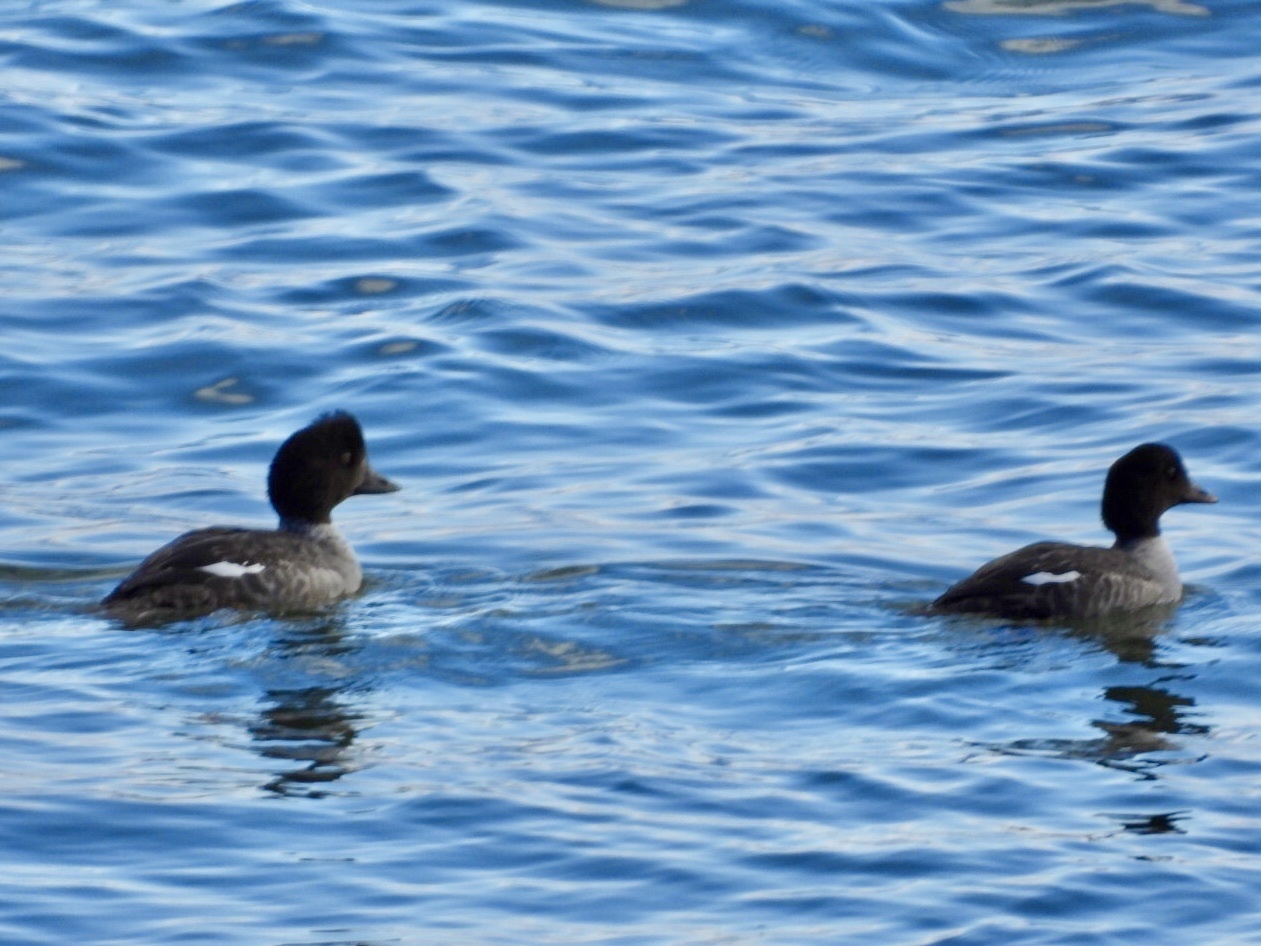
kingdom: Animalia
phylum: Chordata
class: Aves
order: Anseriformes
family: Anatidae
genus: Bucephala
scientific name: Bucephala clangula
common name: Common goldeneye
